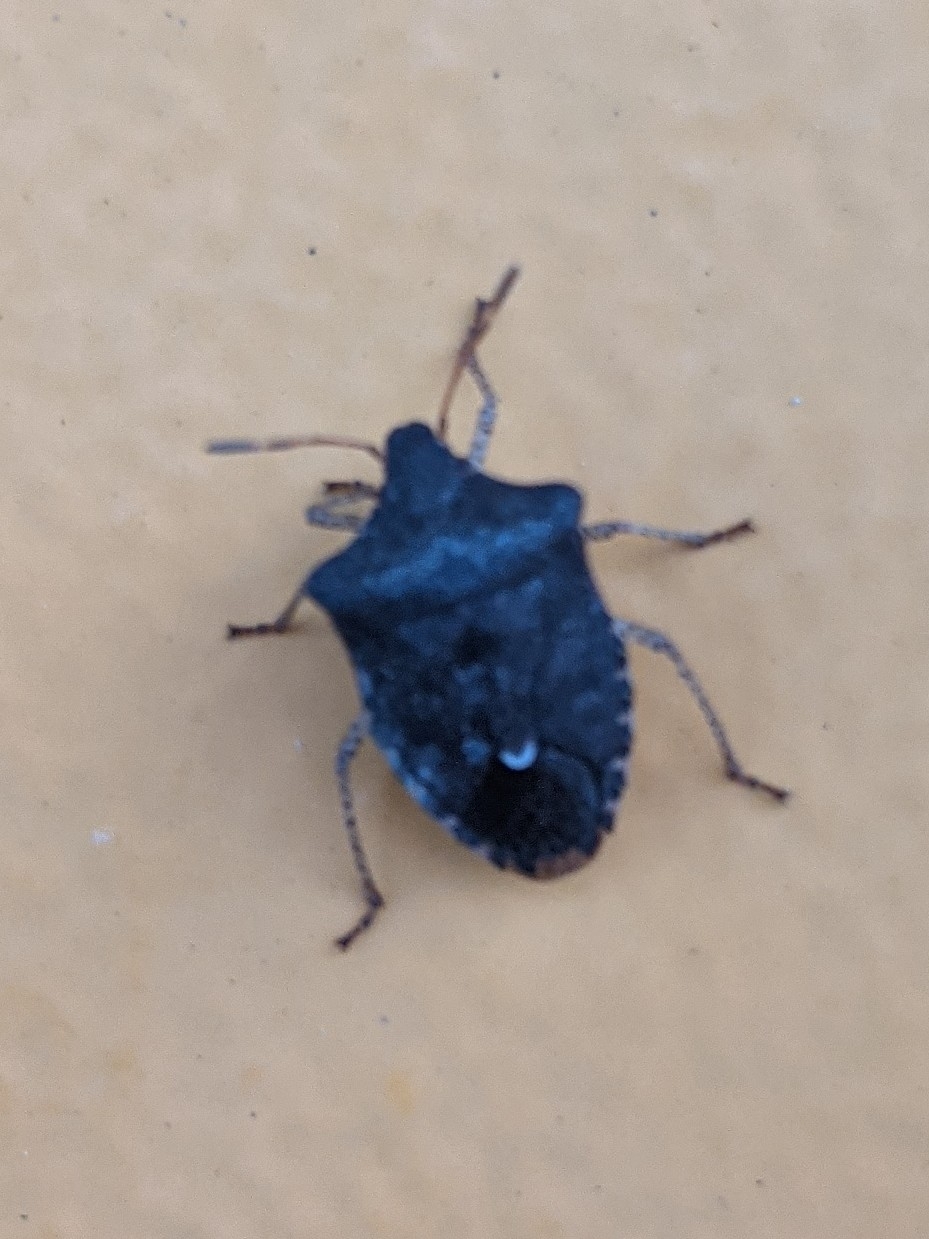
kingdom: Animalia
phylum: Arthropoda
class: Insecta
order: Hemiptera
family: Pentatomidae
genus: Euschistus
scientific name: Euschistus tristigmus
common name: Dusky stink bug
